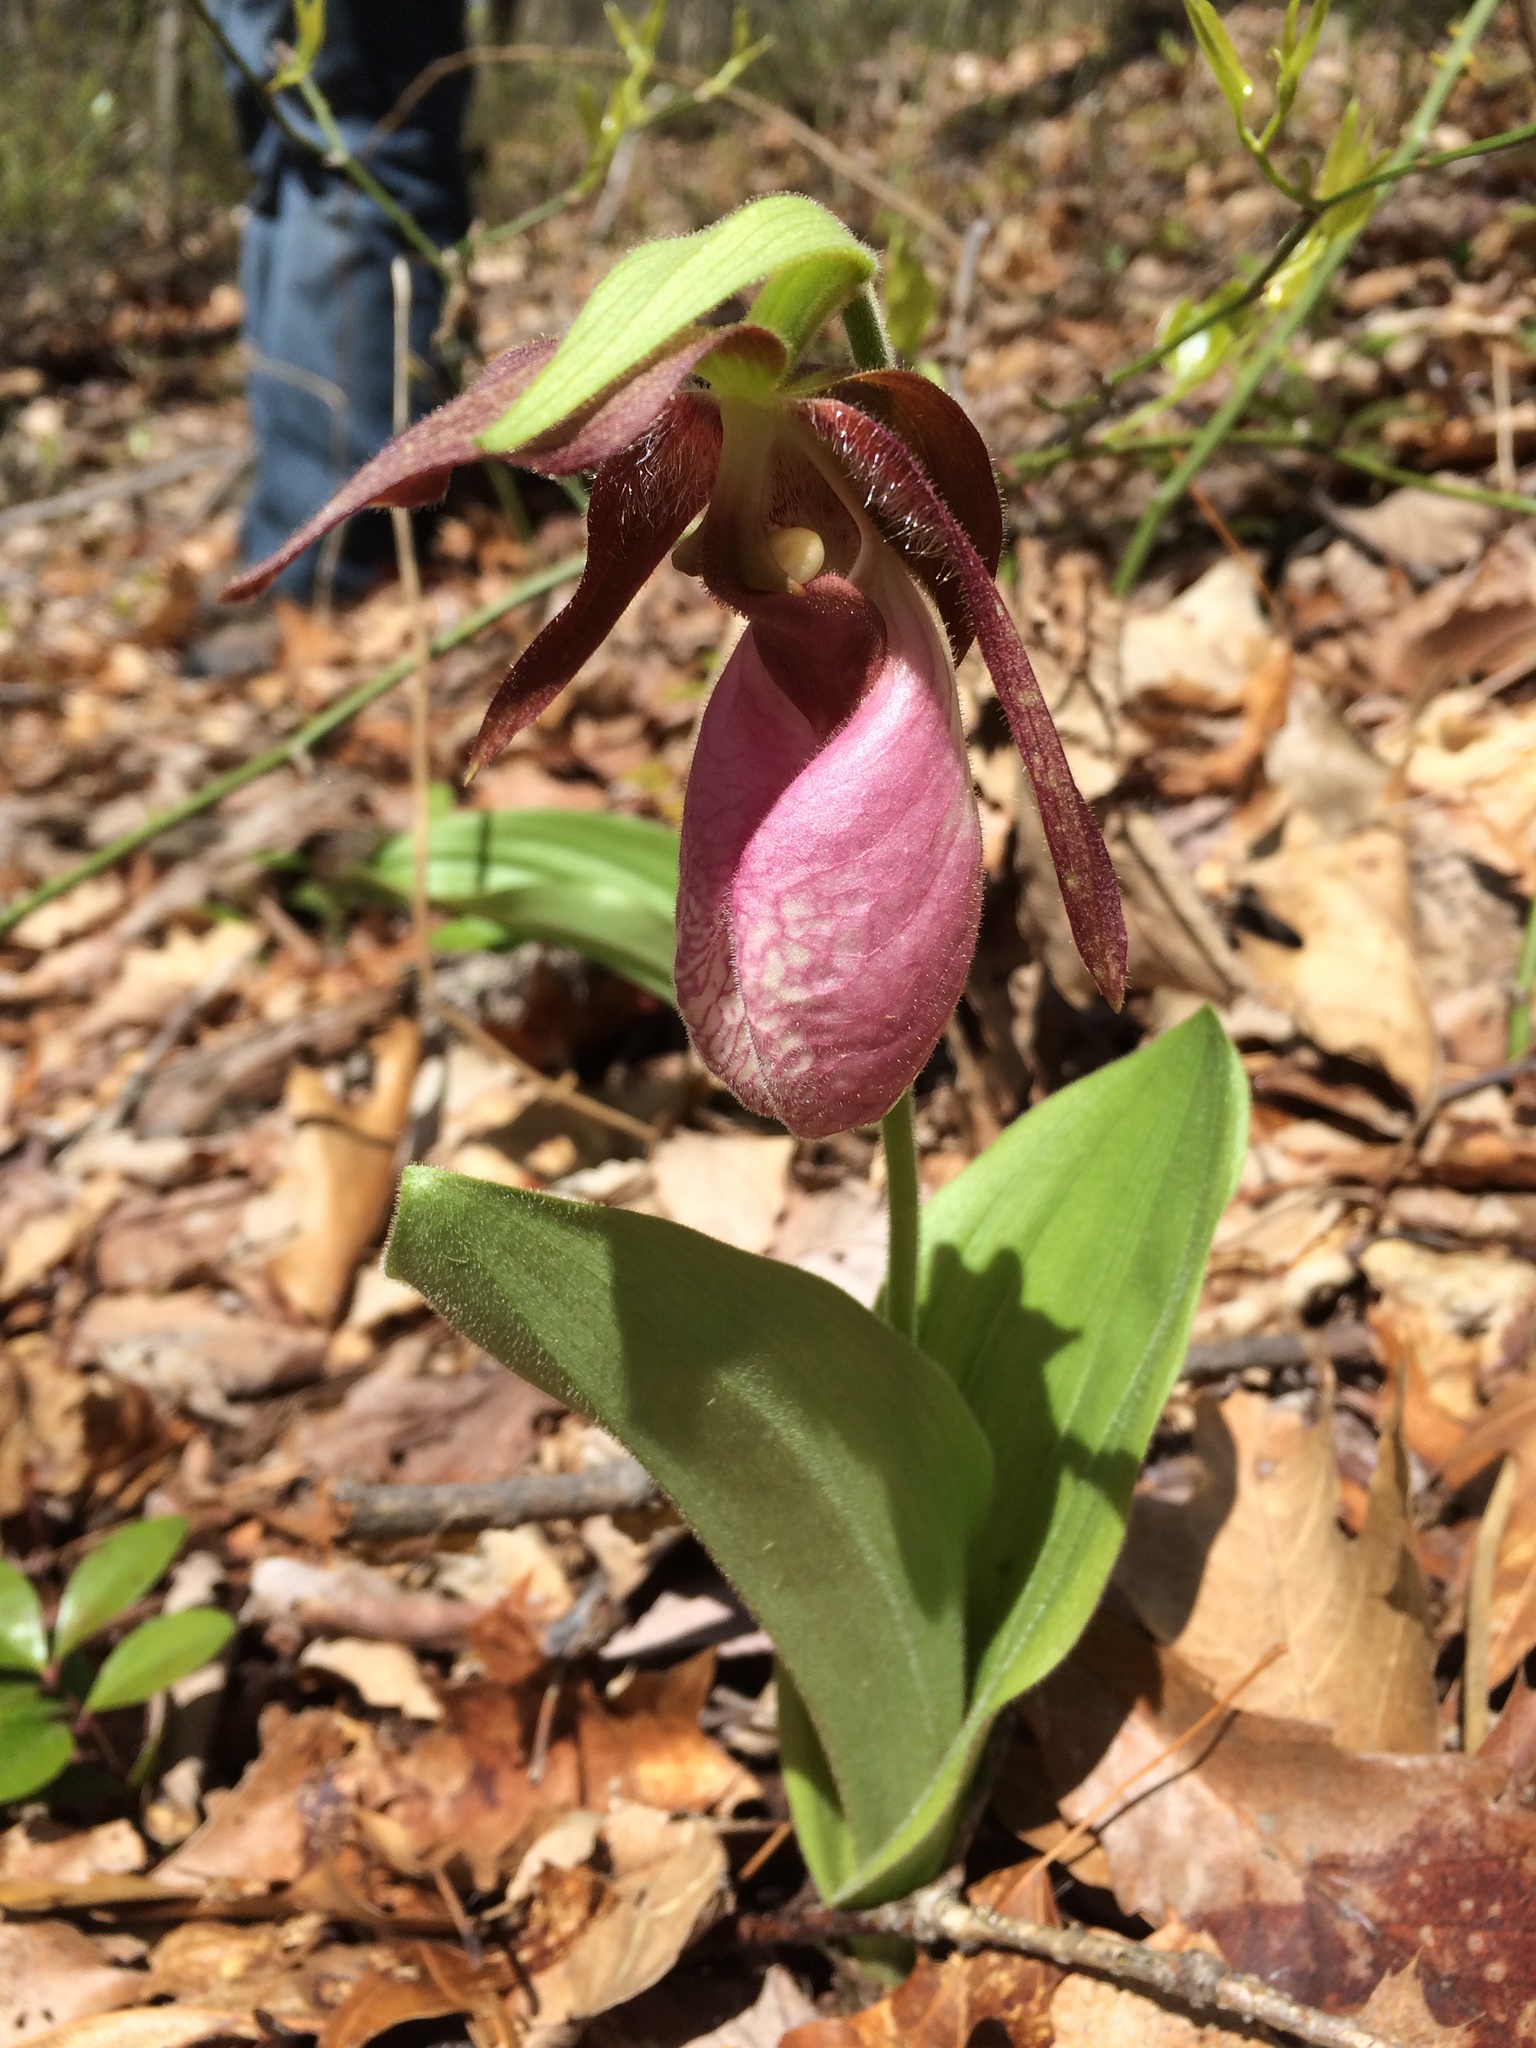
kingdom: Plantae
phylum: Tracheophyta
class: Liliopsida
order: Asparagales
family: Orchidaceae
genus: Cypripedium
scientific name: Cypripedium acaule
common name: Pink lady's-slipper
